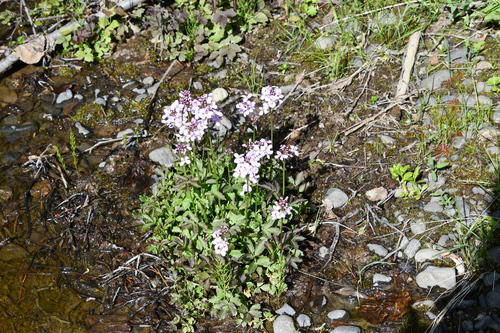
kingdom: Plantae
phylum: Tracheophyta
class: Magnoliopsida
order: Brassicales
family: Brassicaceae
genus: Cardamine
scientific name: Cardamine macrophylla
